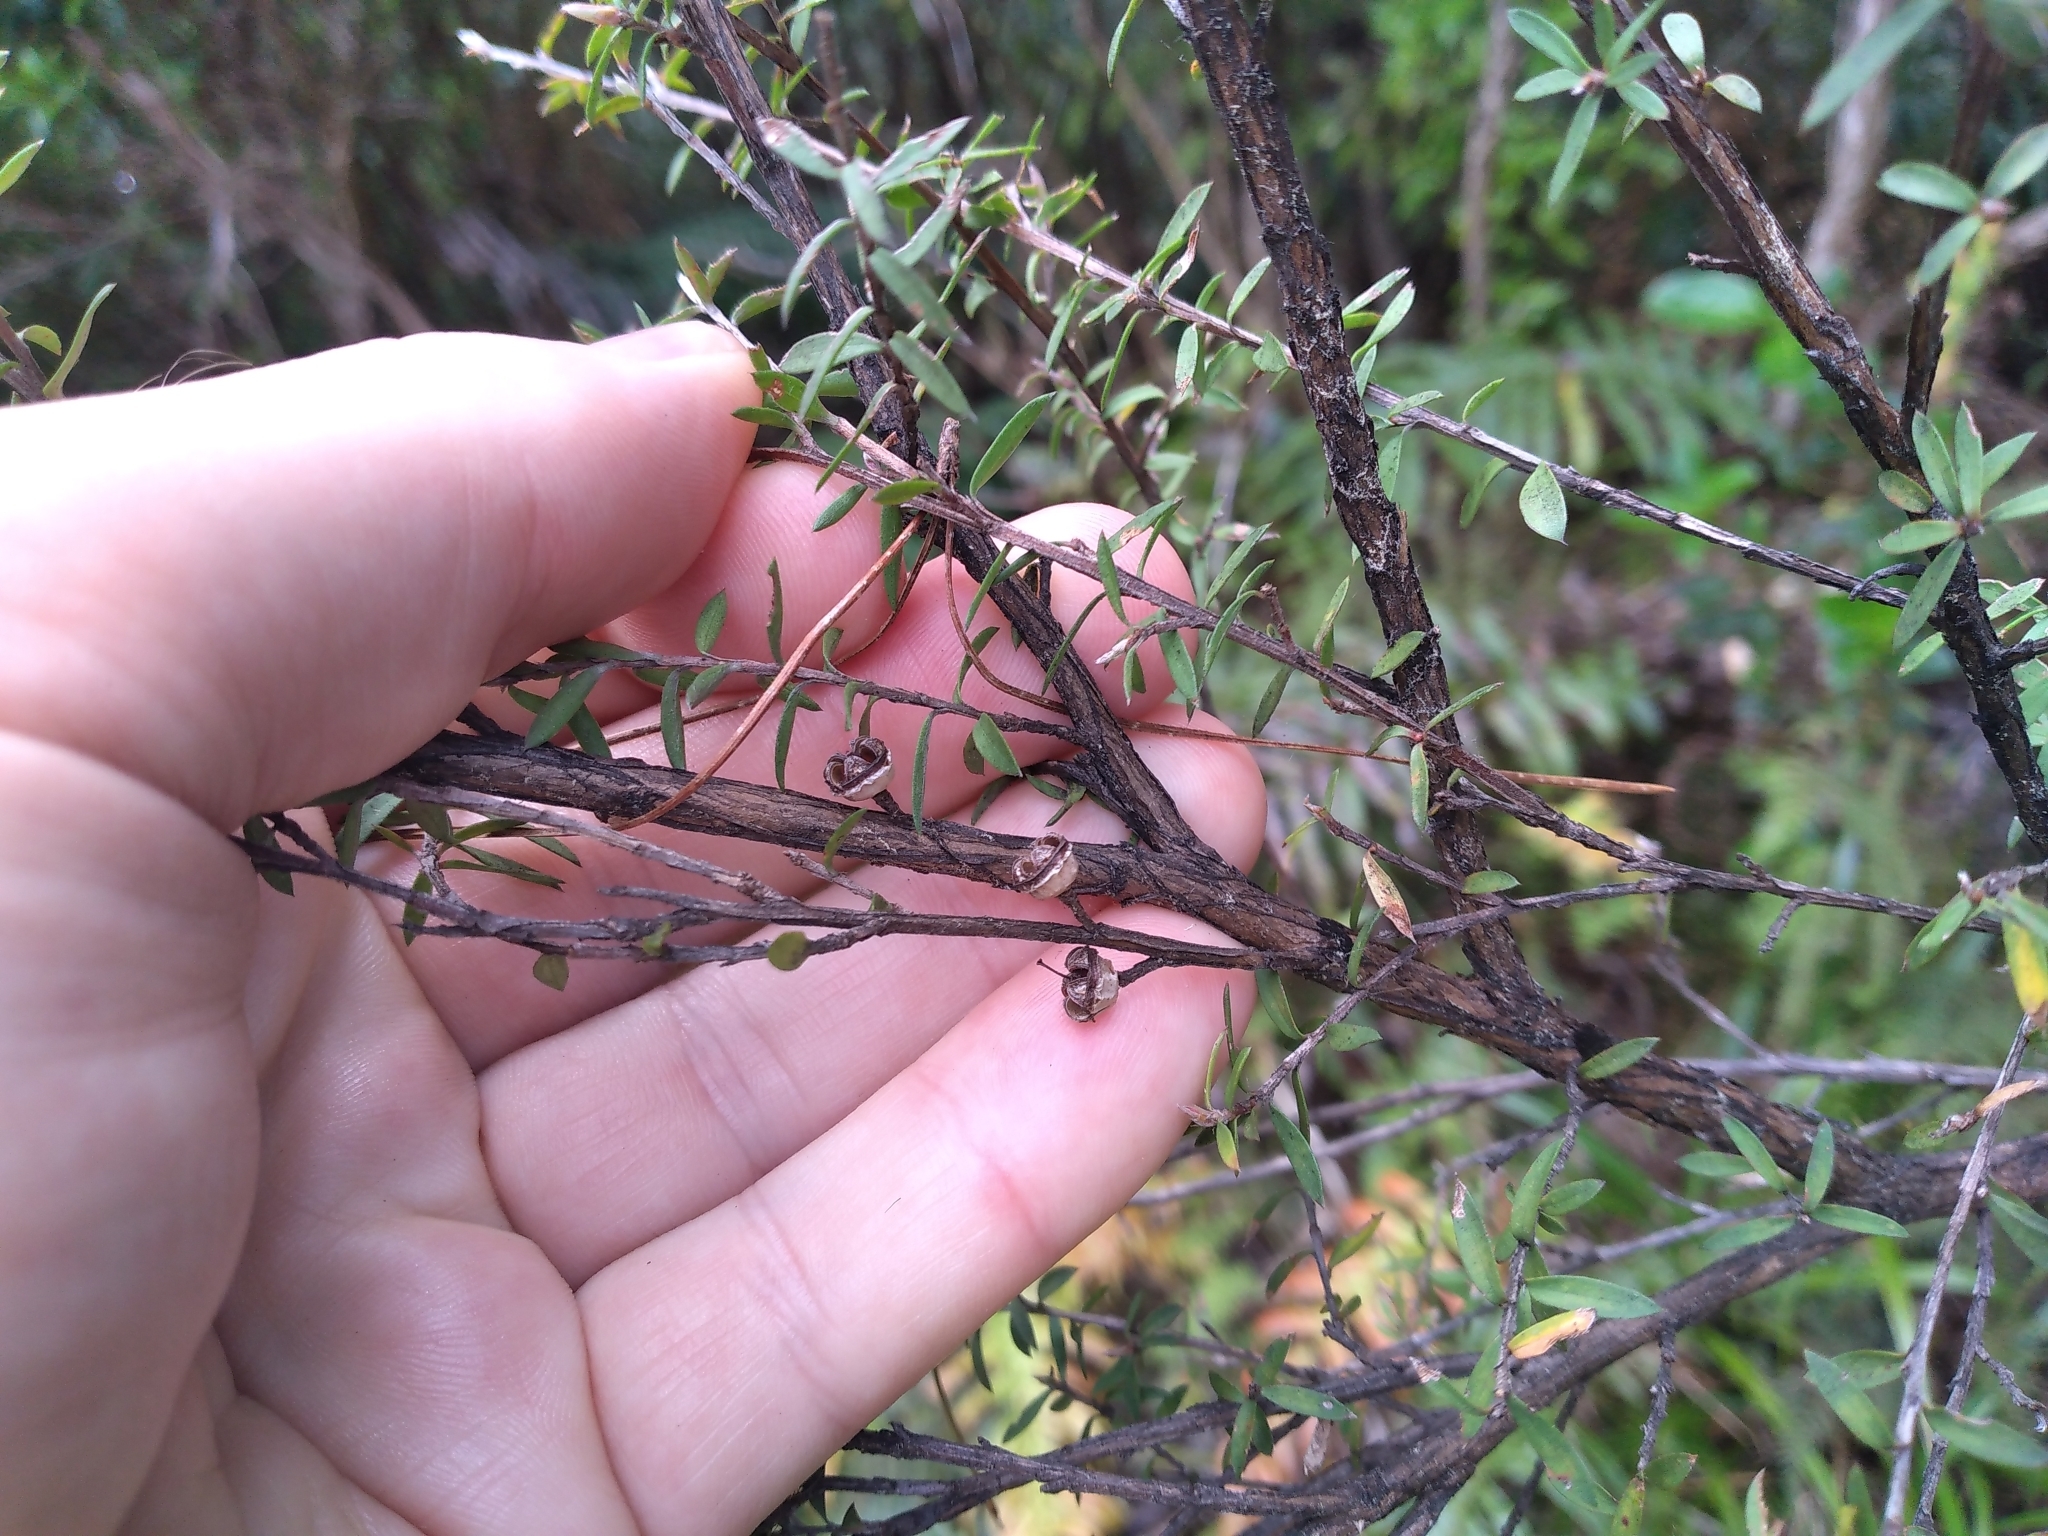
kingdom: Plantae
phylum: Tracheophyta
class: Magnoliopsida
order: Myrtales
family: Myrtaceae
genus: Leptospermum
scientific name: Leptospermum scoparium
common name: Broom tea-tree
